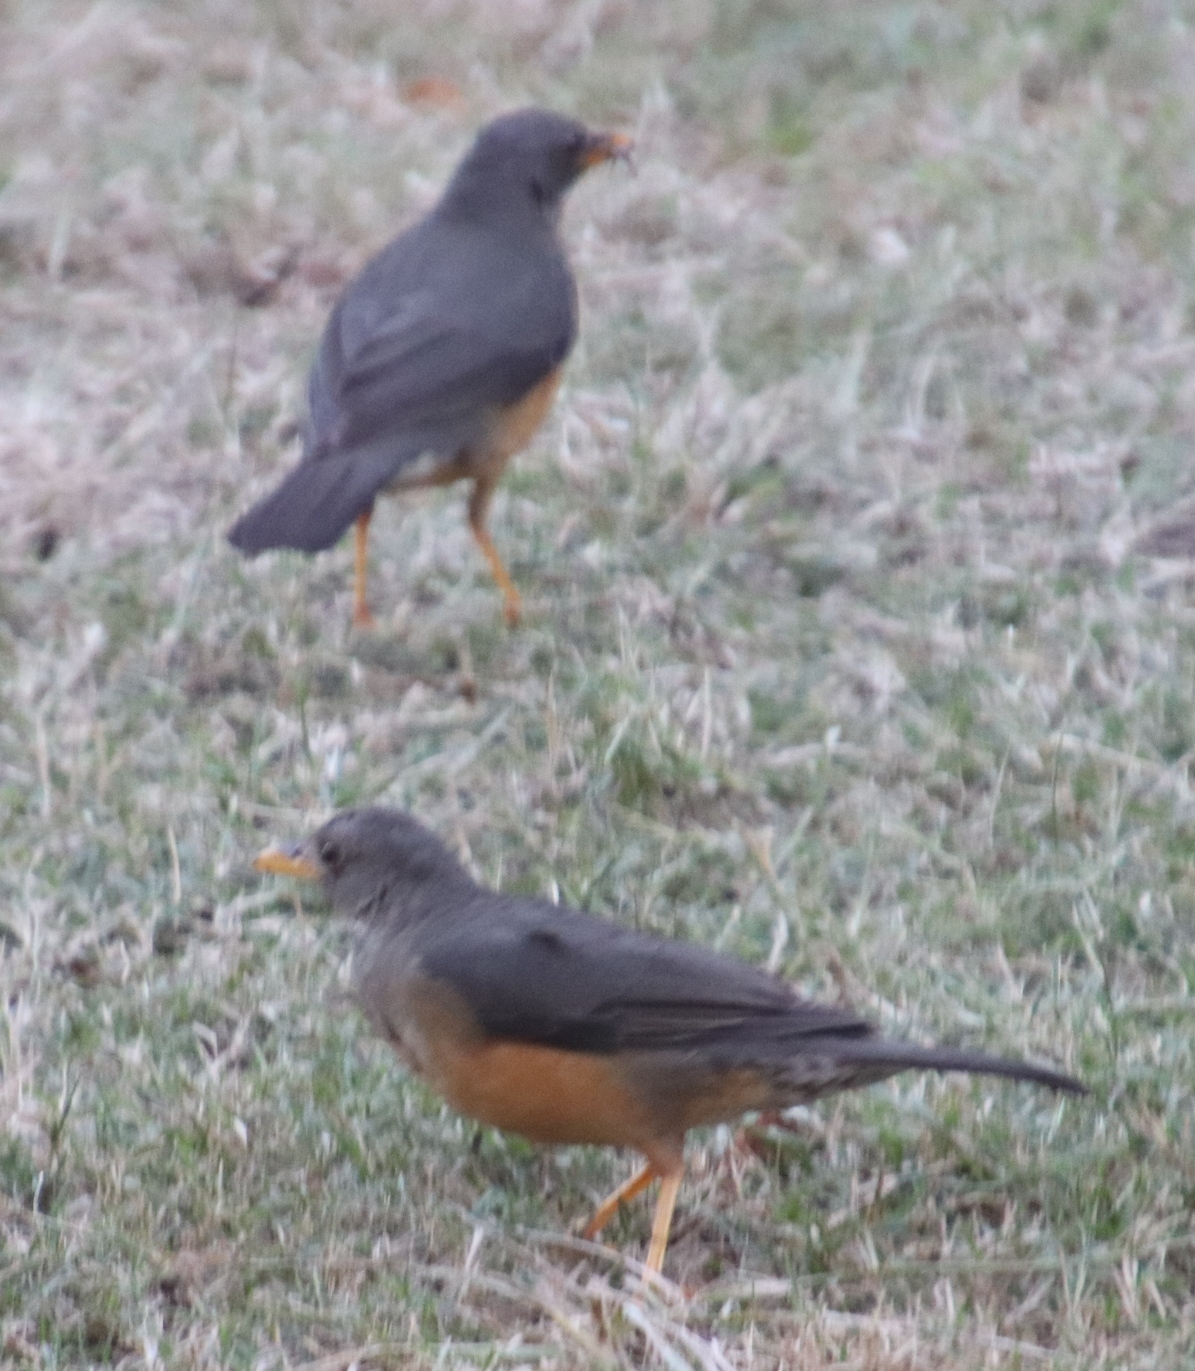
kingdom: Animalia
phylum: Chordata
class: Aves
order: Passeriformes
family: Turdidae
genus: Turdus
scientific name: Turdus olivaceus
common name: Olive thrush
